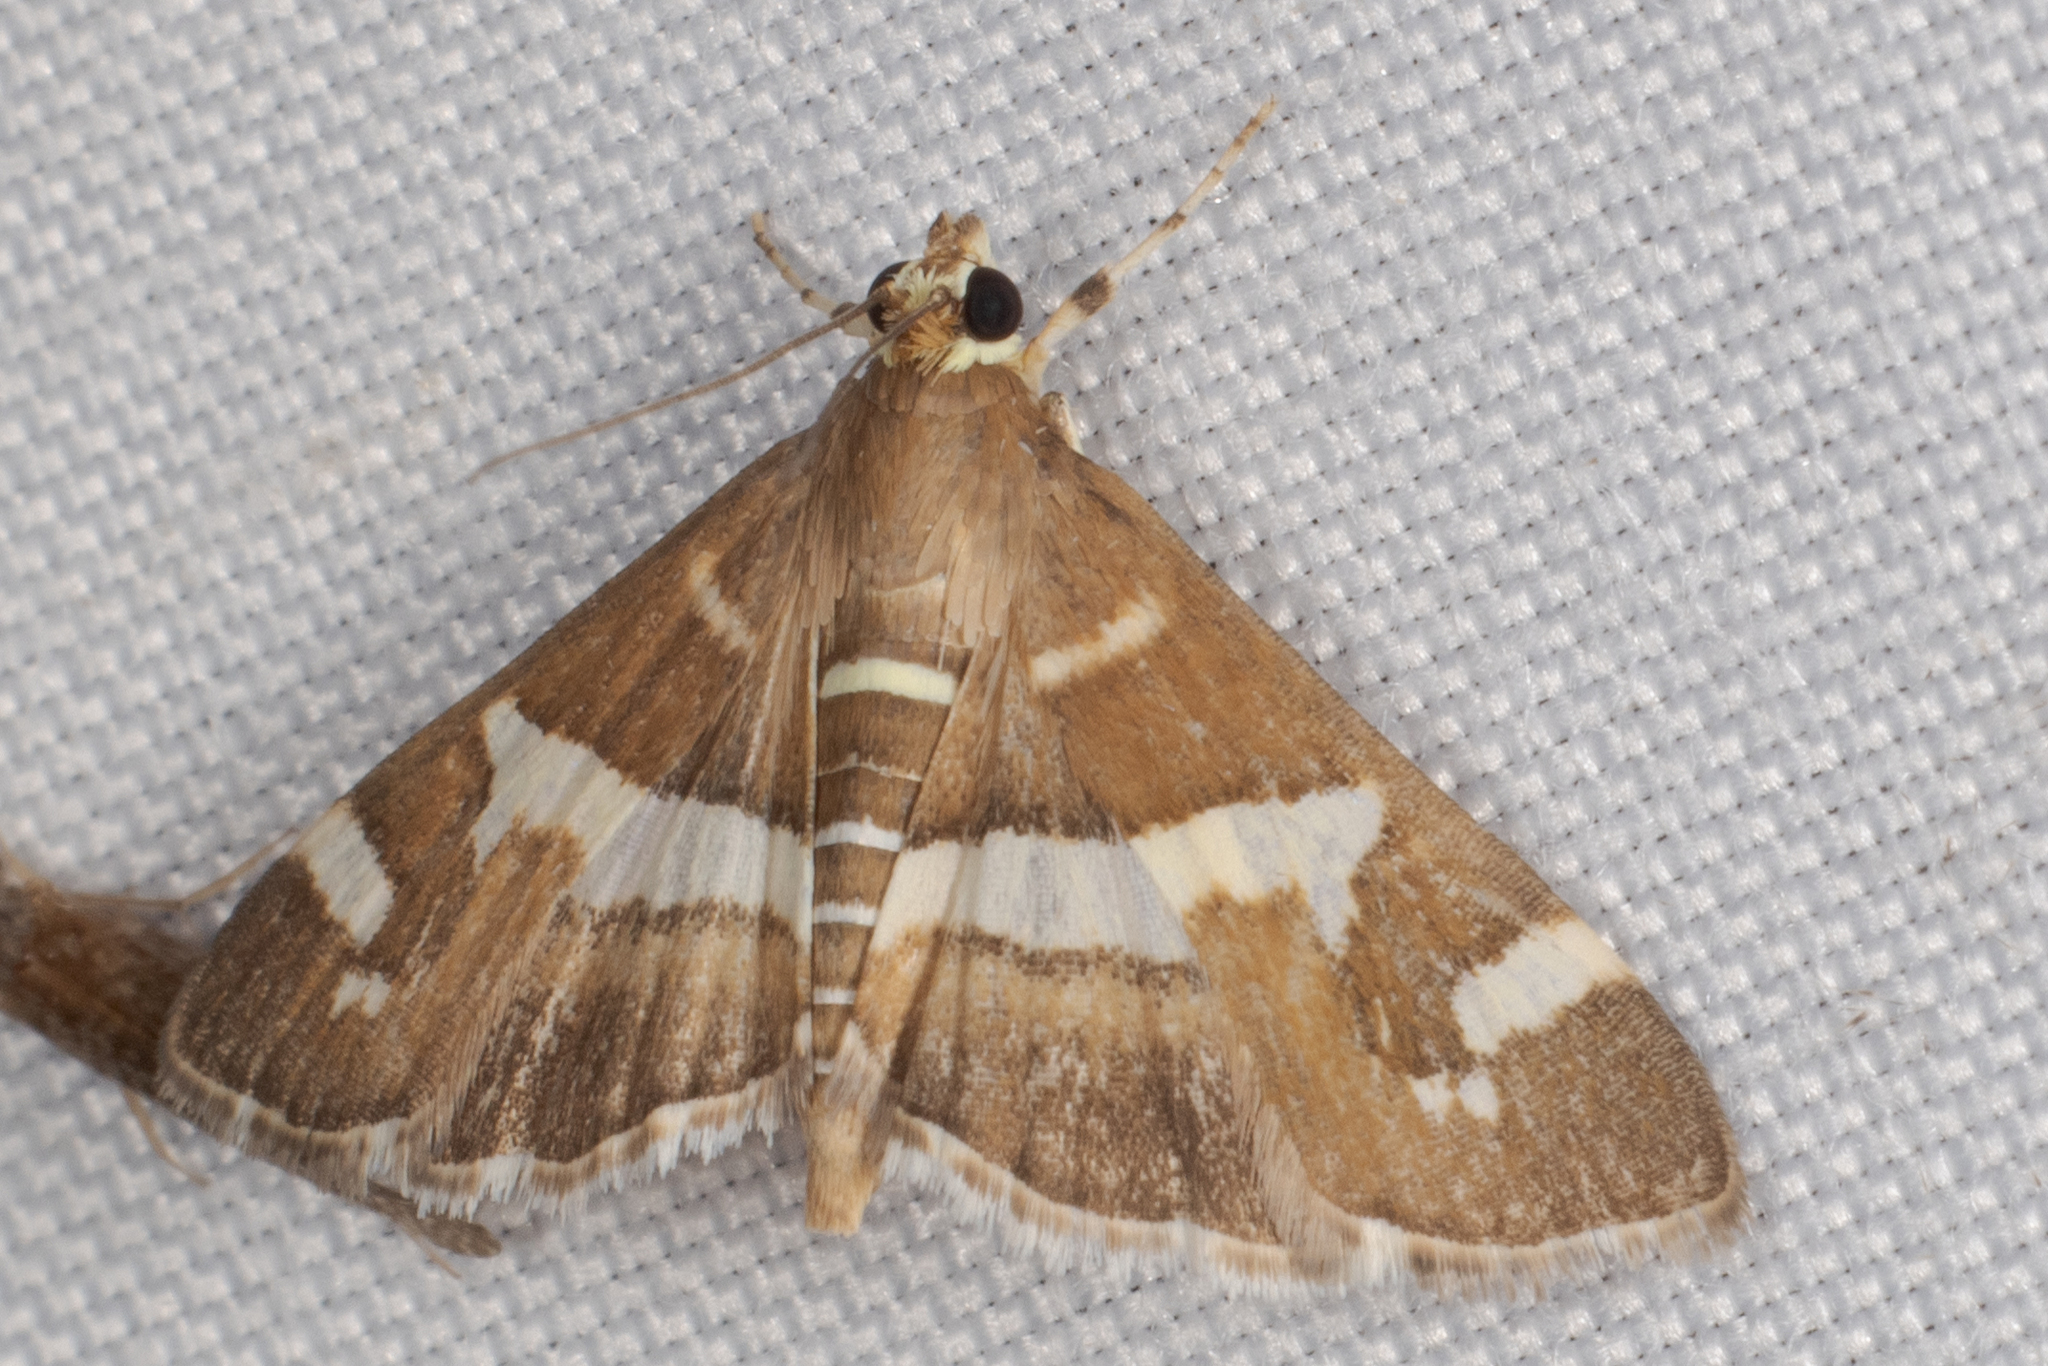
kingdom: Animalia
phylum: Arthropoda
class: Insecta
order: Lepidoptera
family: Crambidae
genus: Spoladea
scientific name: Spoladea recurvalis
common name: Beet webworm moth
